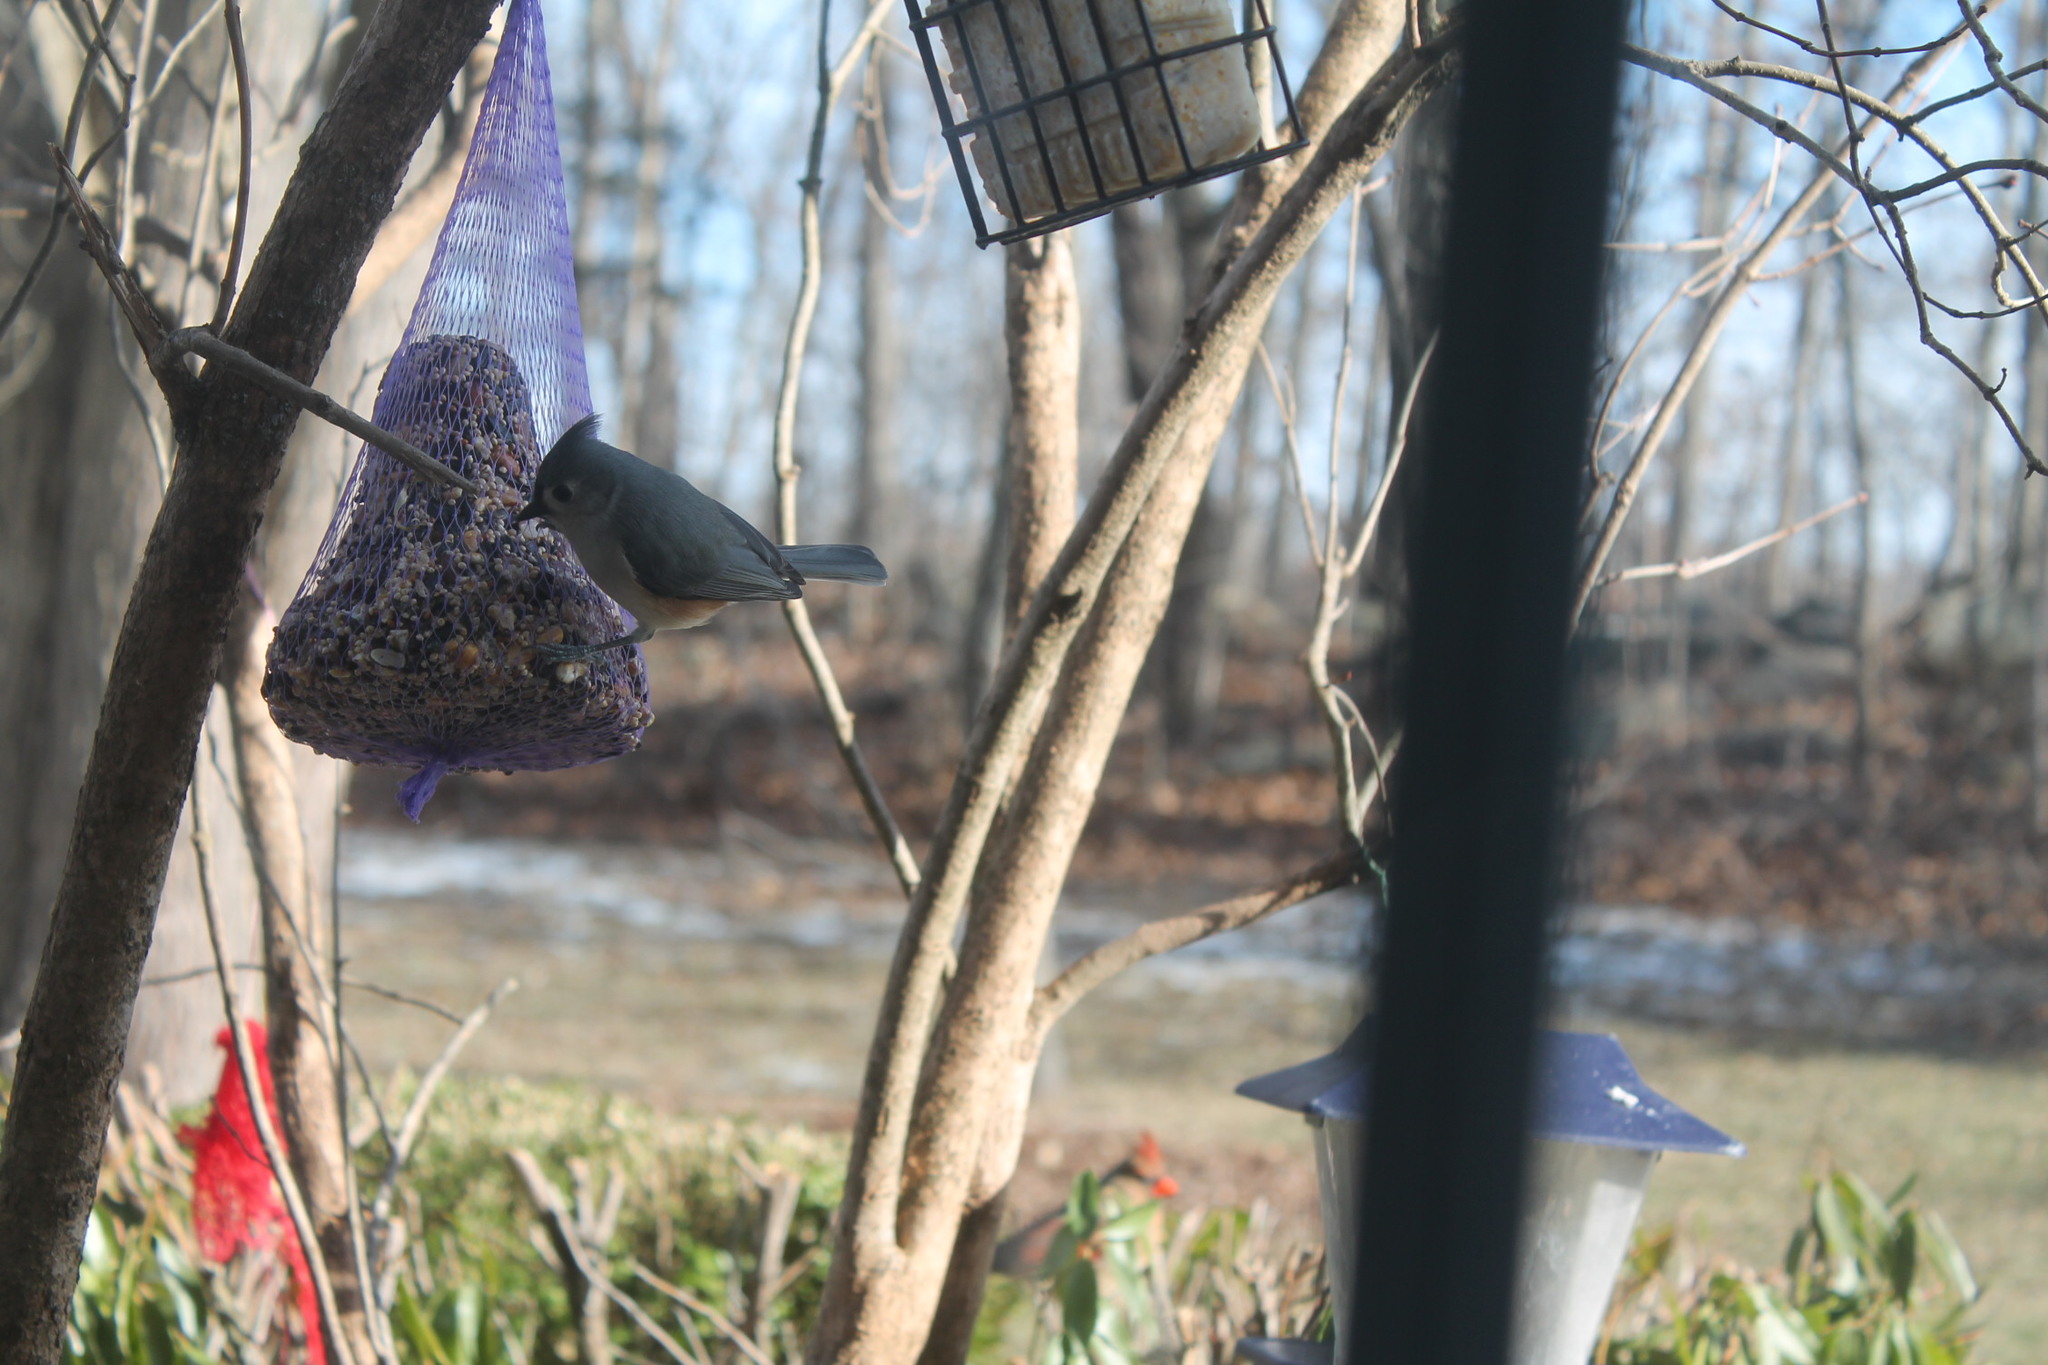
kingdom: Animalia
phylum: Chordata
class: Aves
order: Passeriformes
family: Paridae
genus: Baeolophus
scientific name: Baeolophus bicolor
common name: Tufted titmouse
